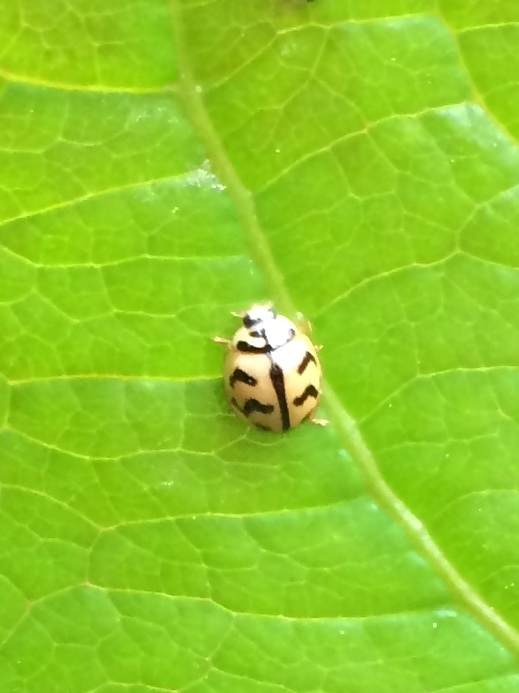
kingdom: Animalia
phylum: Arthropoda
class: Insecta
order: Coleoptera
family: Coccinellidae
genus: Cheilomenes
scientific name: Cheilomenes sexmaculata
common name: Ladybird beetle
